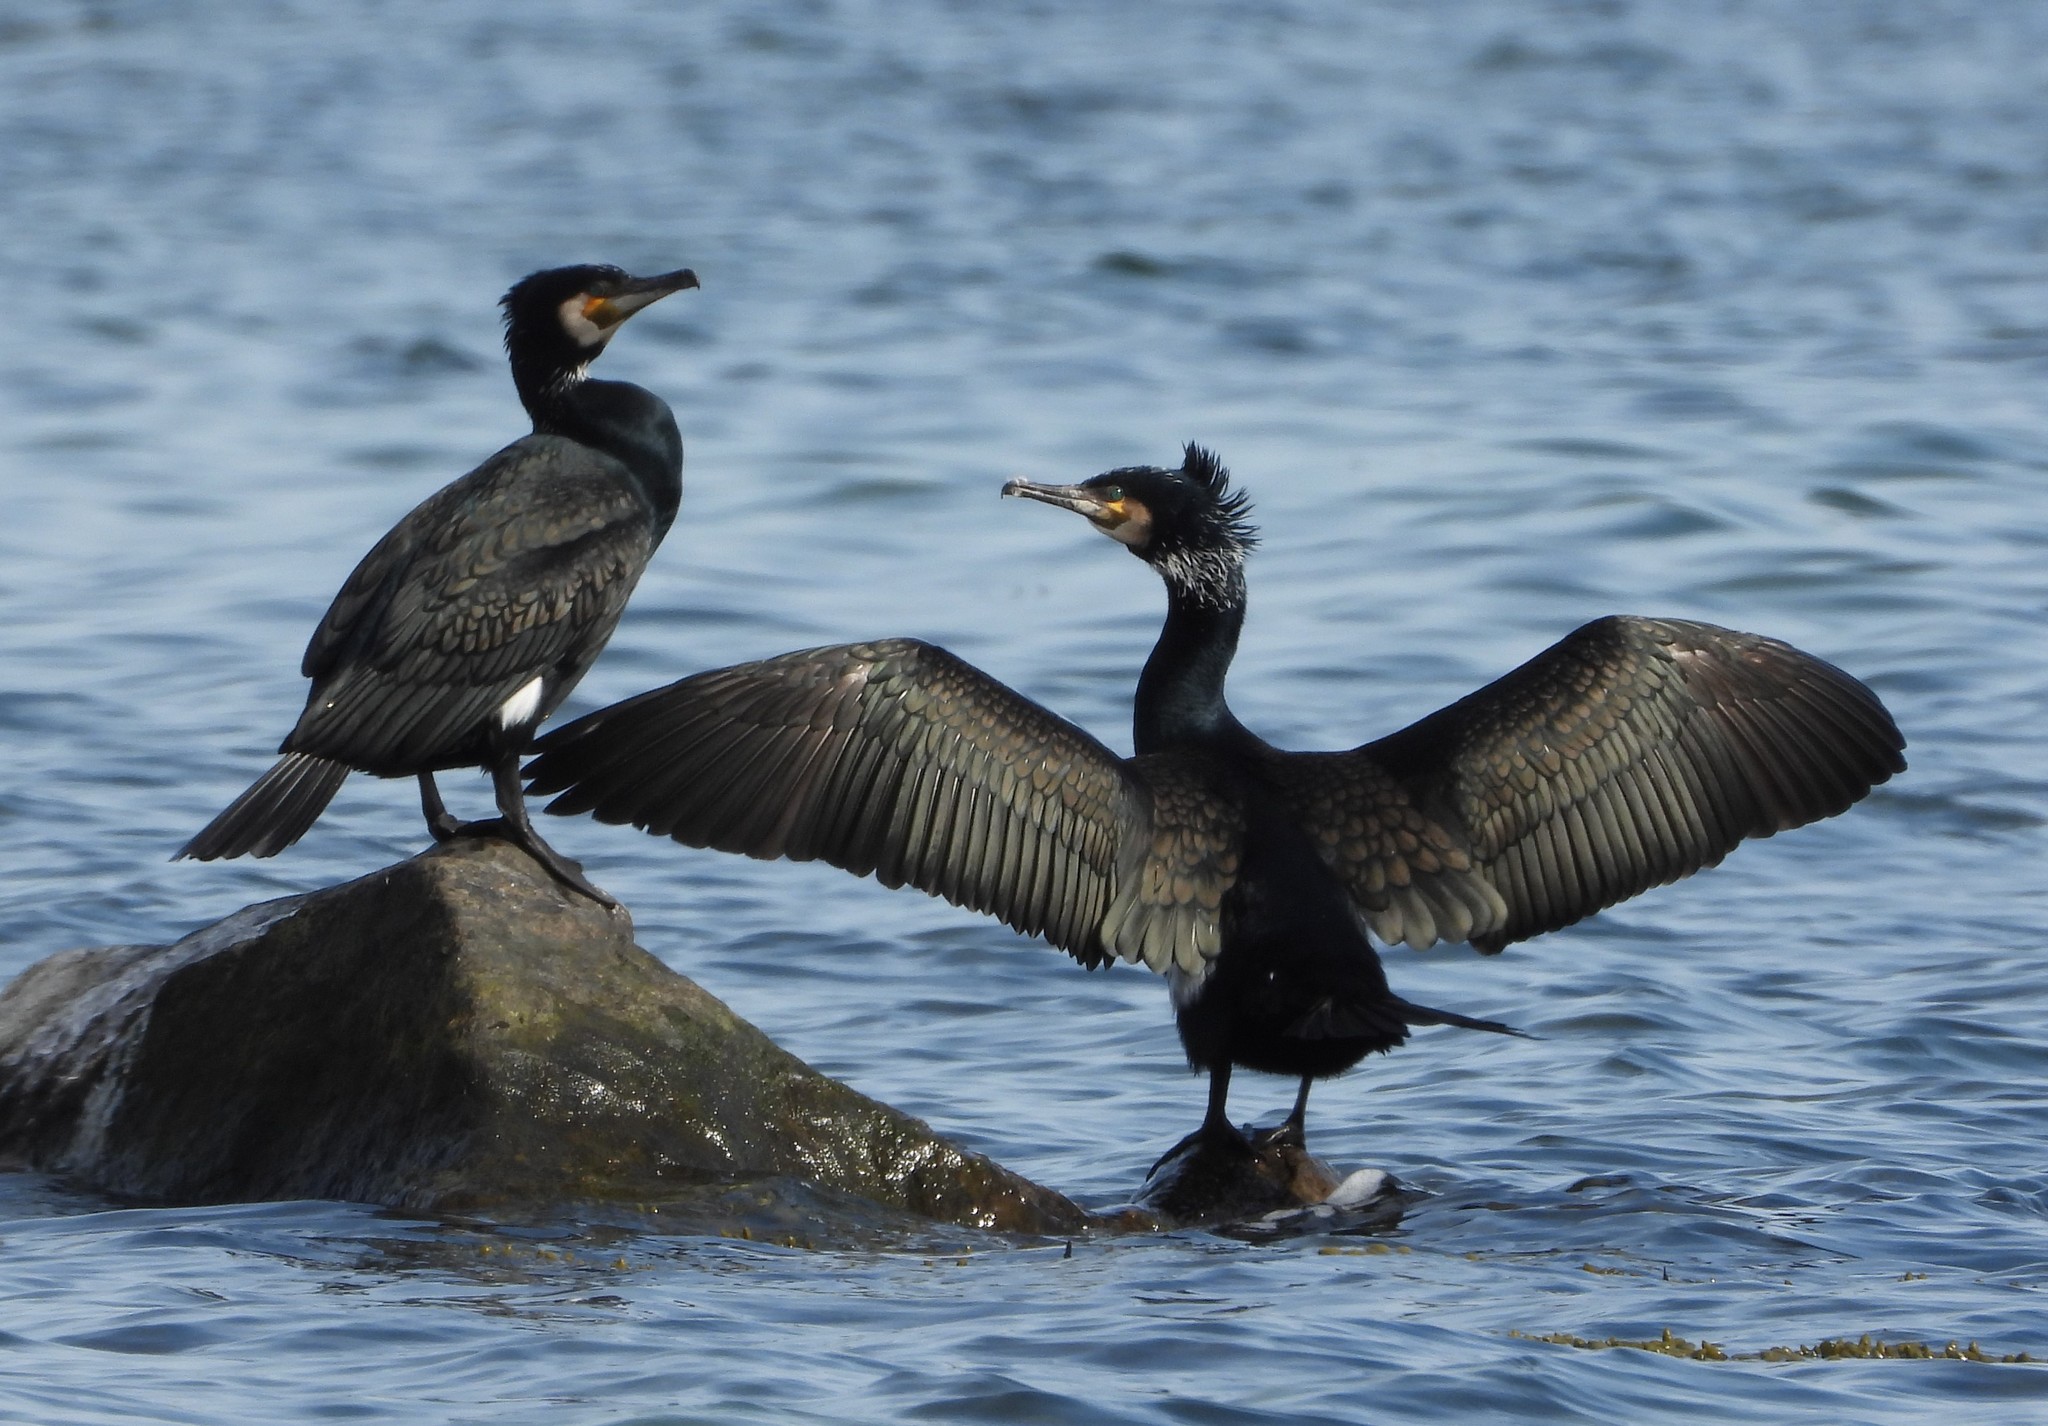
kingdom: Animalia
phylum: Chordata
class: Aves
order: Suliformes
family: Phalacrocoracidae
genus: Phalacrocorax
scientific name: Phalacrocorax carbo
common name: Great cormorant
